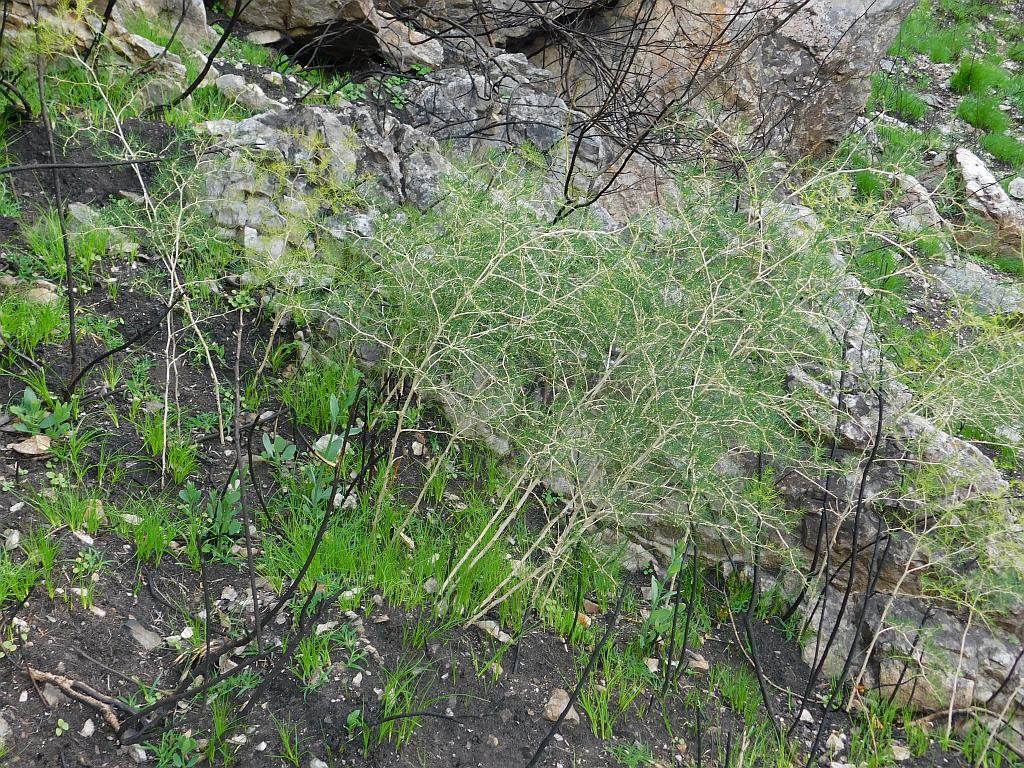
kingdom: Plantae
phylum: Tracheophyta
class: Liliopsida
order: Asparagales
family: Asparagaceae
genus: Asparagus
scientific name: Asparagus lignosus
